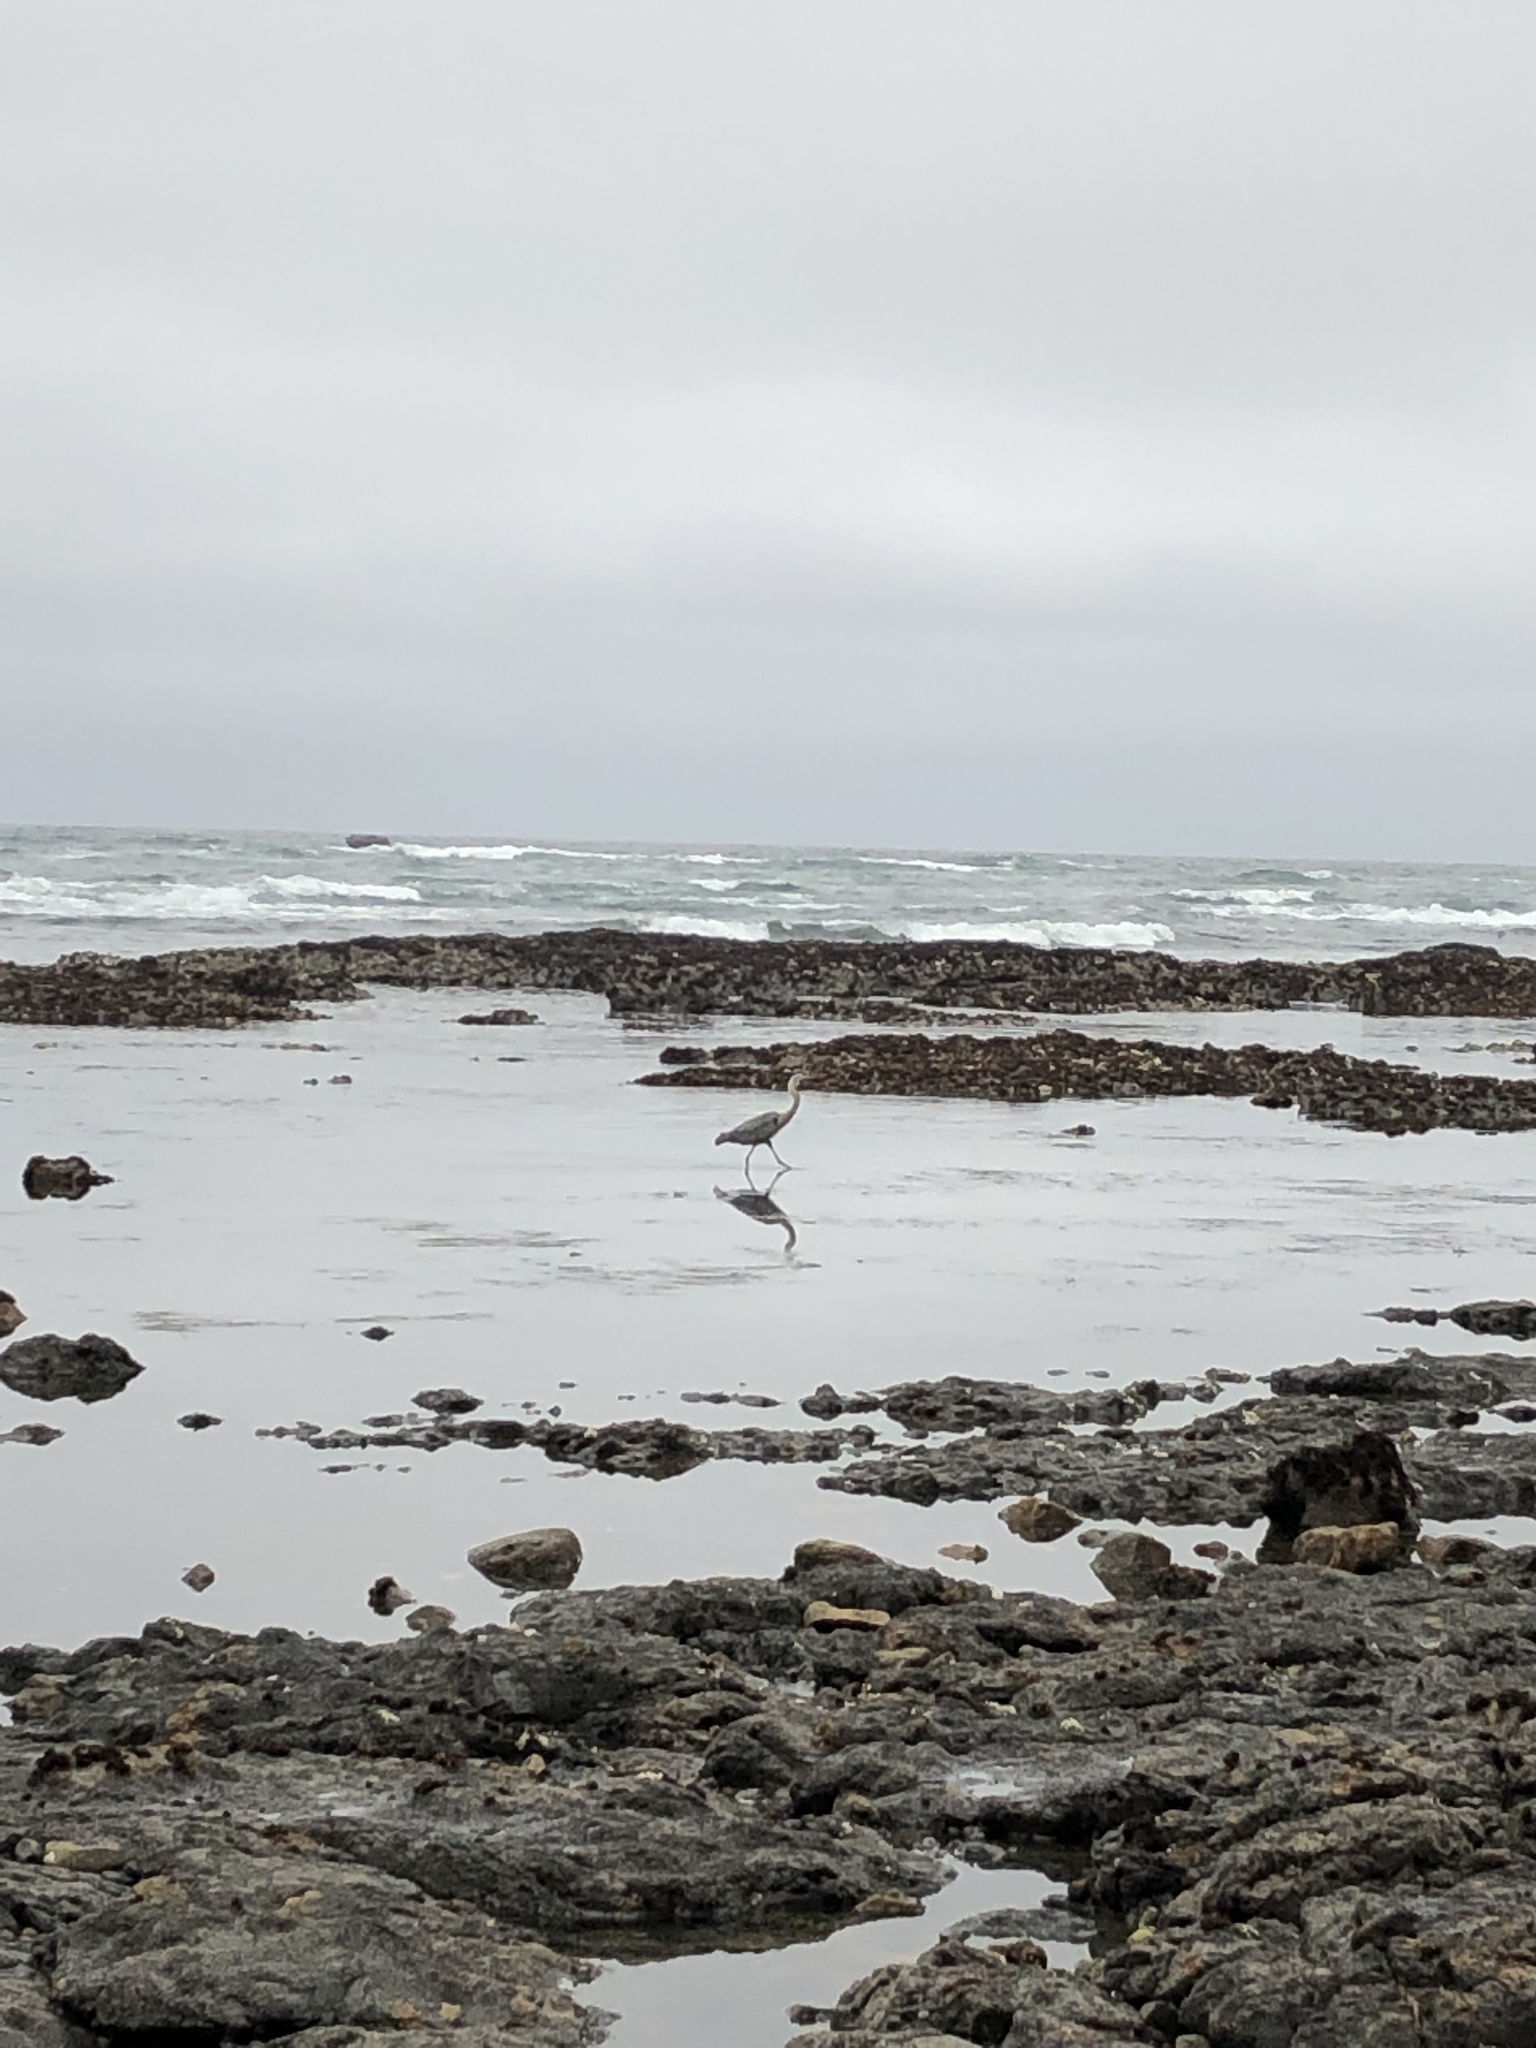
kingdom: Animalia
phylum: Chordata
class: Aves
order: Pelecaniformes
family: Ardeidae
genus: Ardea
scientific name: Ardea herodias
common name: Great blue heron
